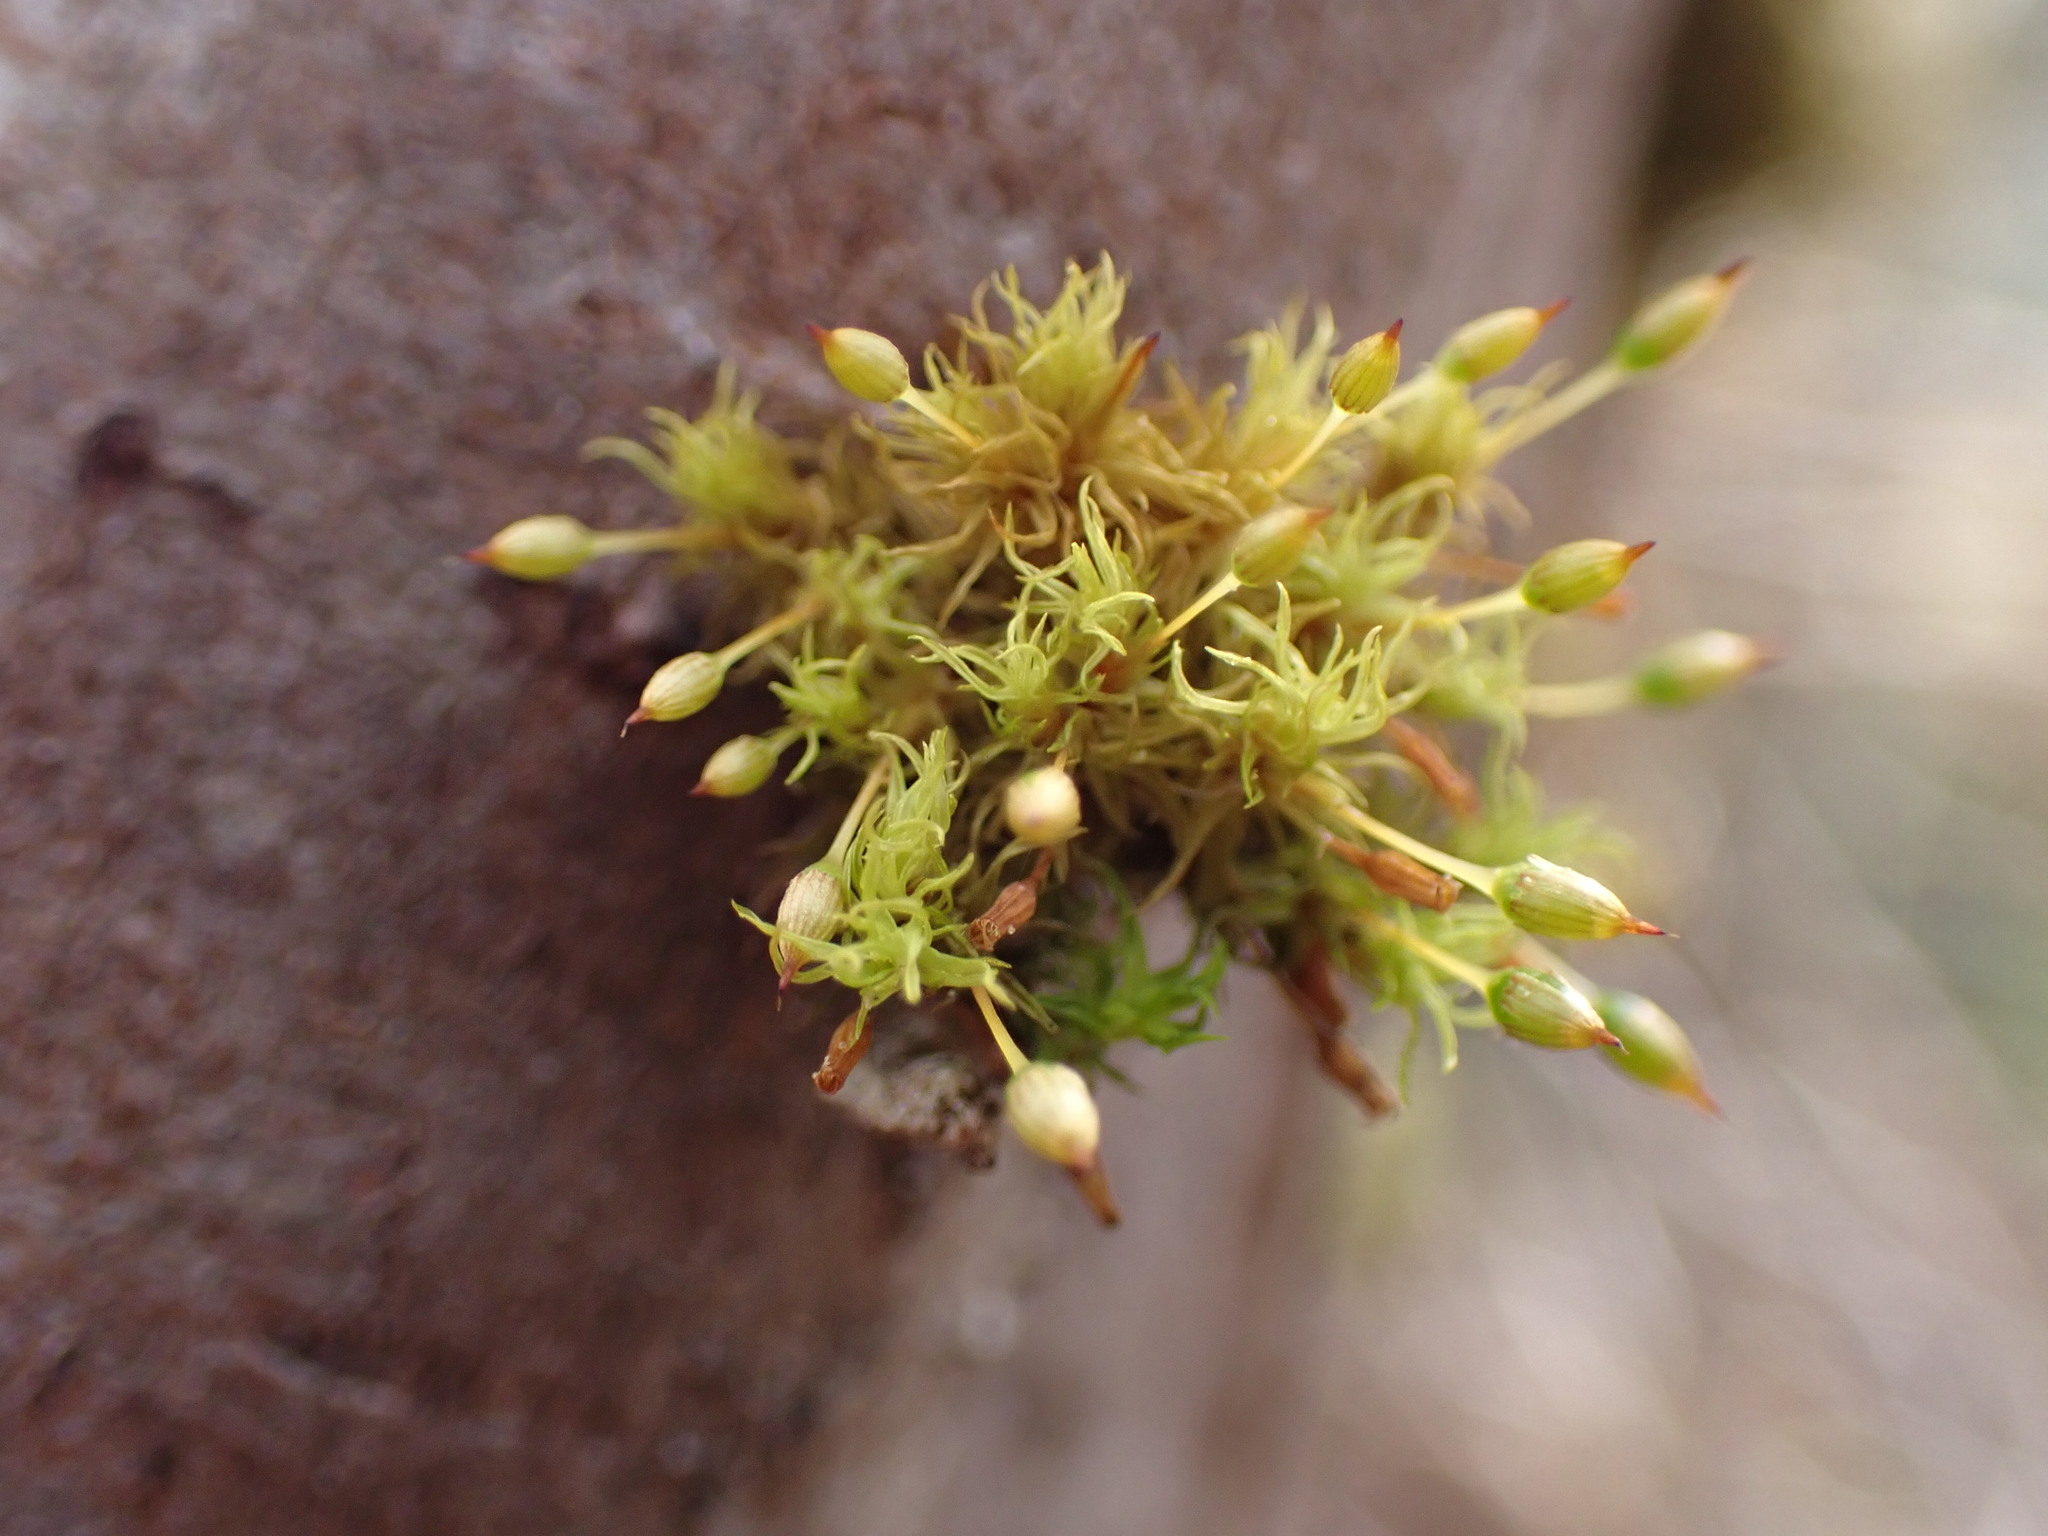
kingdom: Plantae
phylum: Bryophyta
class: Bryopsida
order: Orthotrichales
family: Orthotrichaceae
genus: Orthotrichum
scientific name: Orthotrichum pulchellum
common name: Elegant bristle-moss
